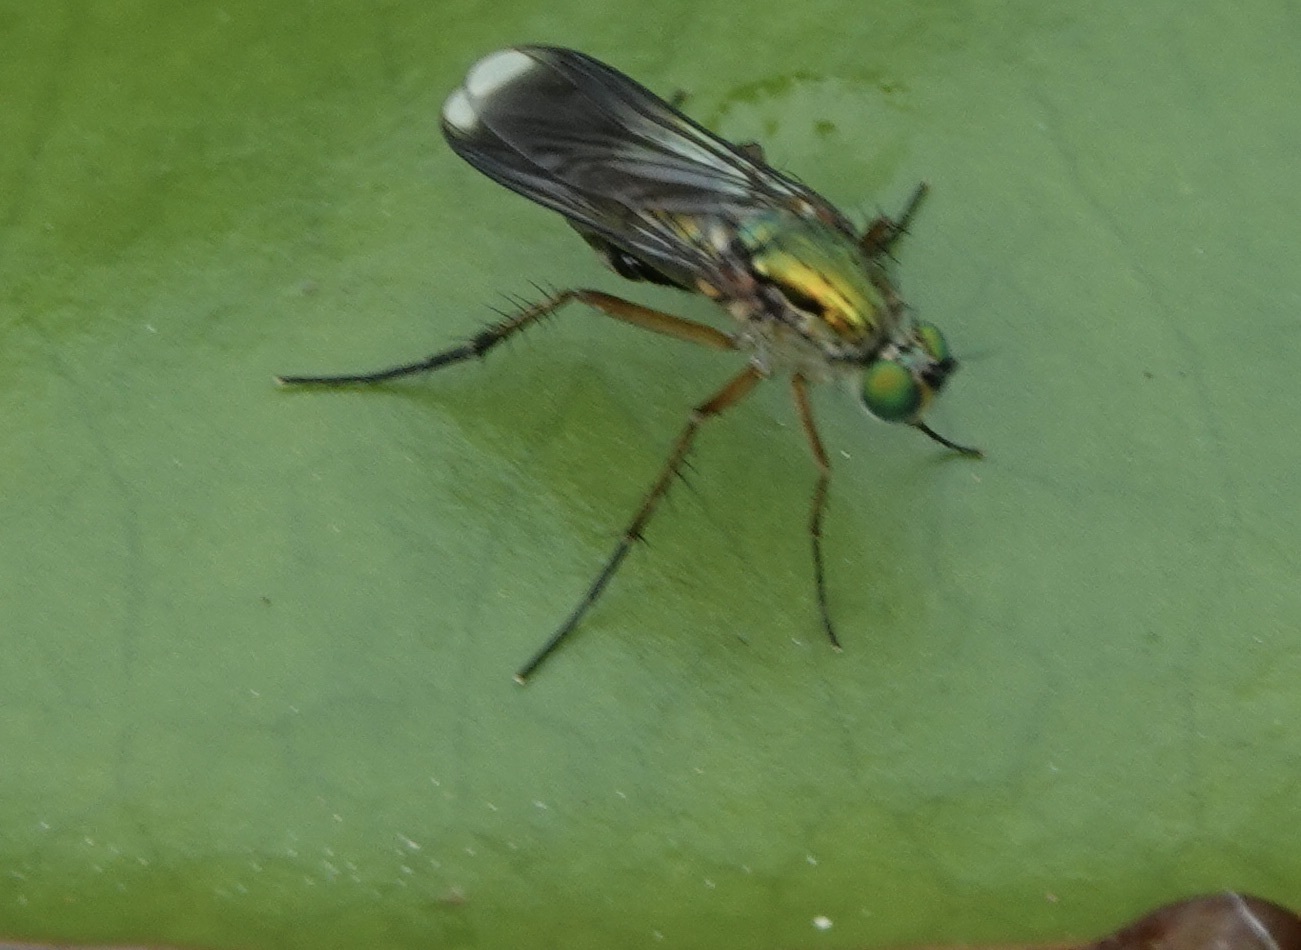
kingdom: Animalia
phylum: Arthropoda
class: Insecta
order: Diptera
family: Dolichopodidae
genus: Poecilobothrus
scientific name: Poecilobothrus nobilitatus
